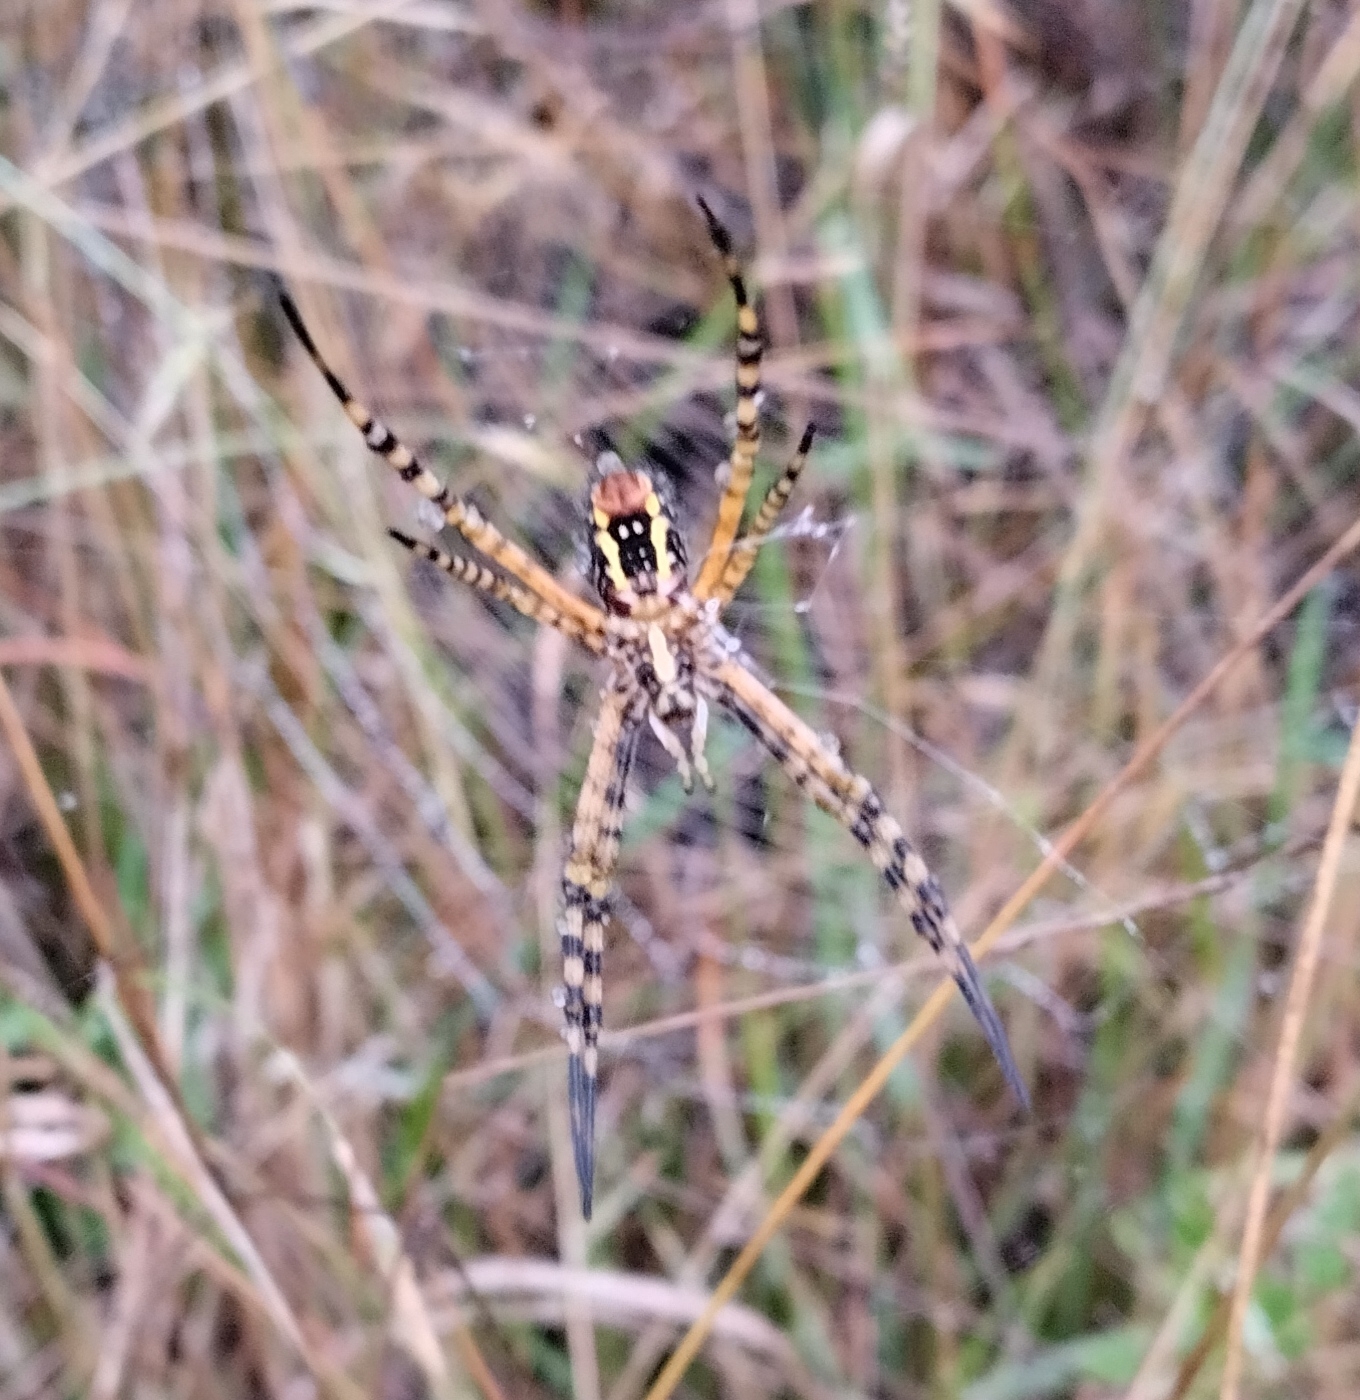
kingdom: Animalia
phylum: Arthropoda
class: Arachnida
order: Araneae
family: Araneidae
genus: Argiope
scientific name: Argiope trifasciata
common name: Banded garden spider
